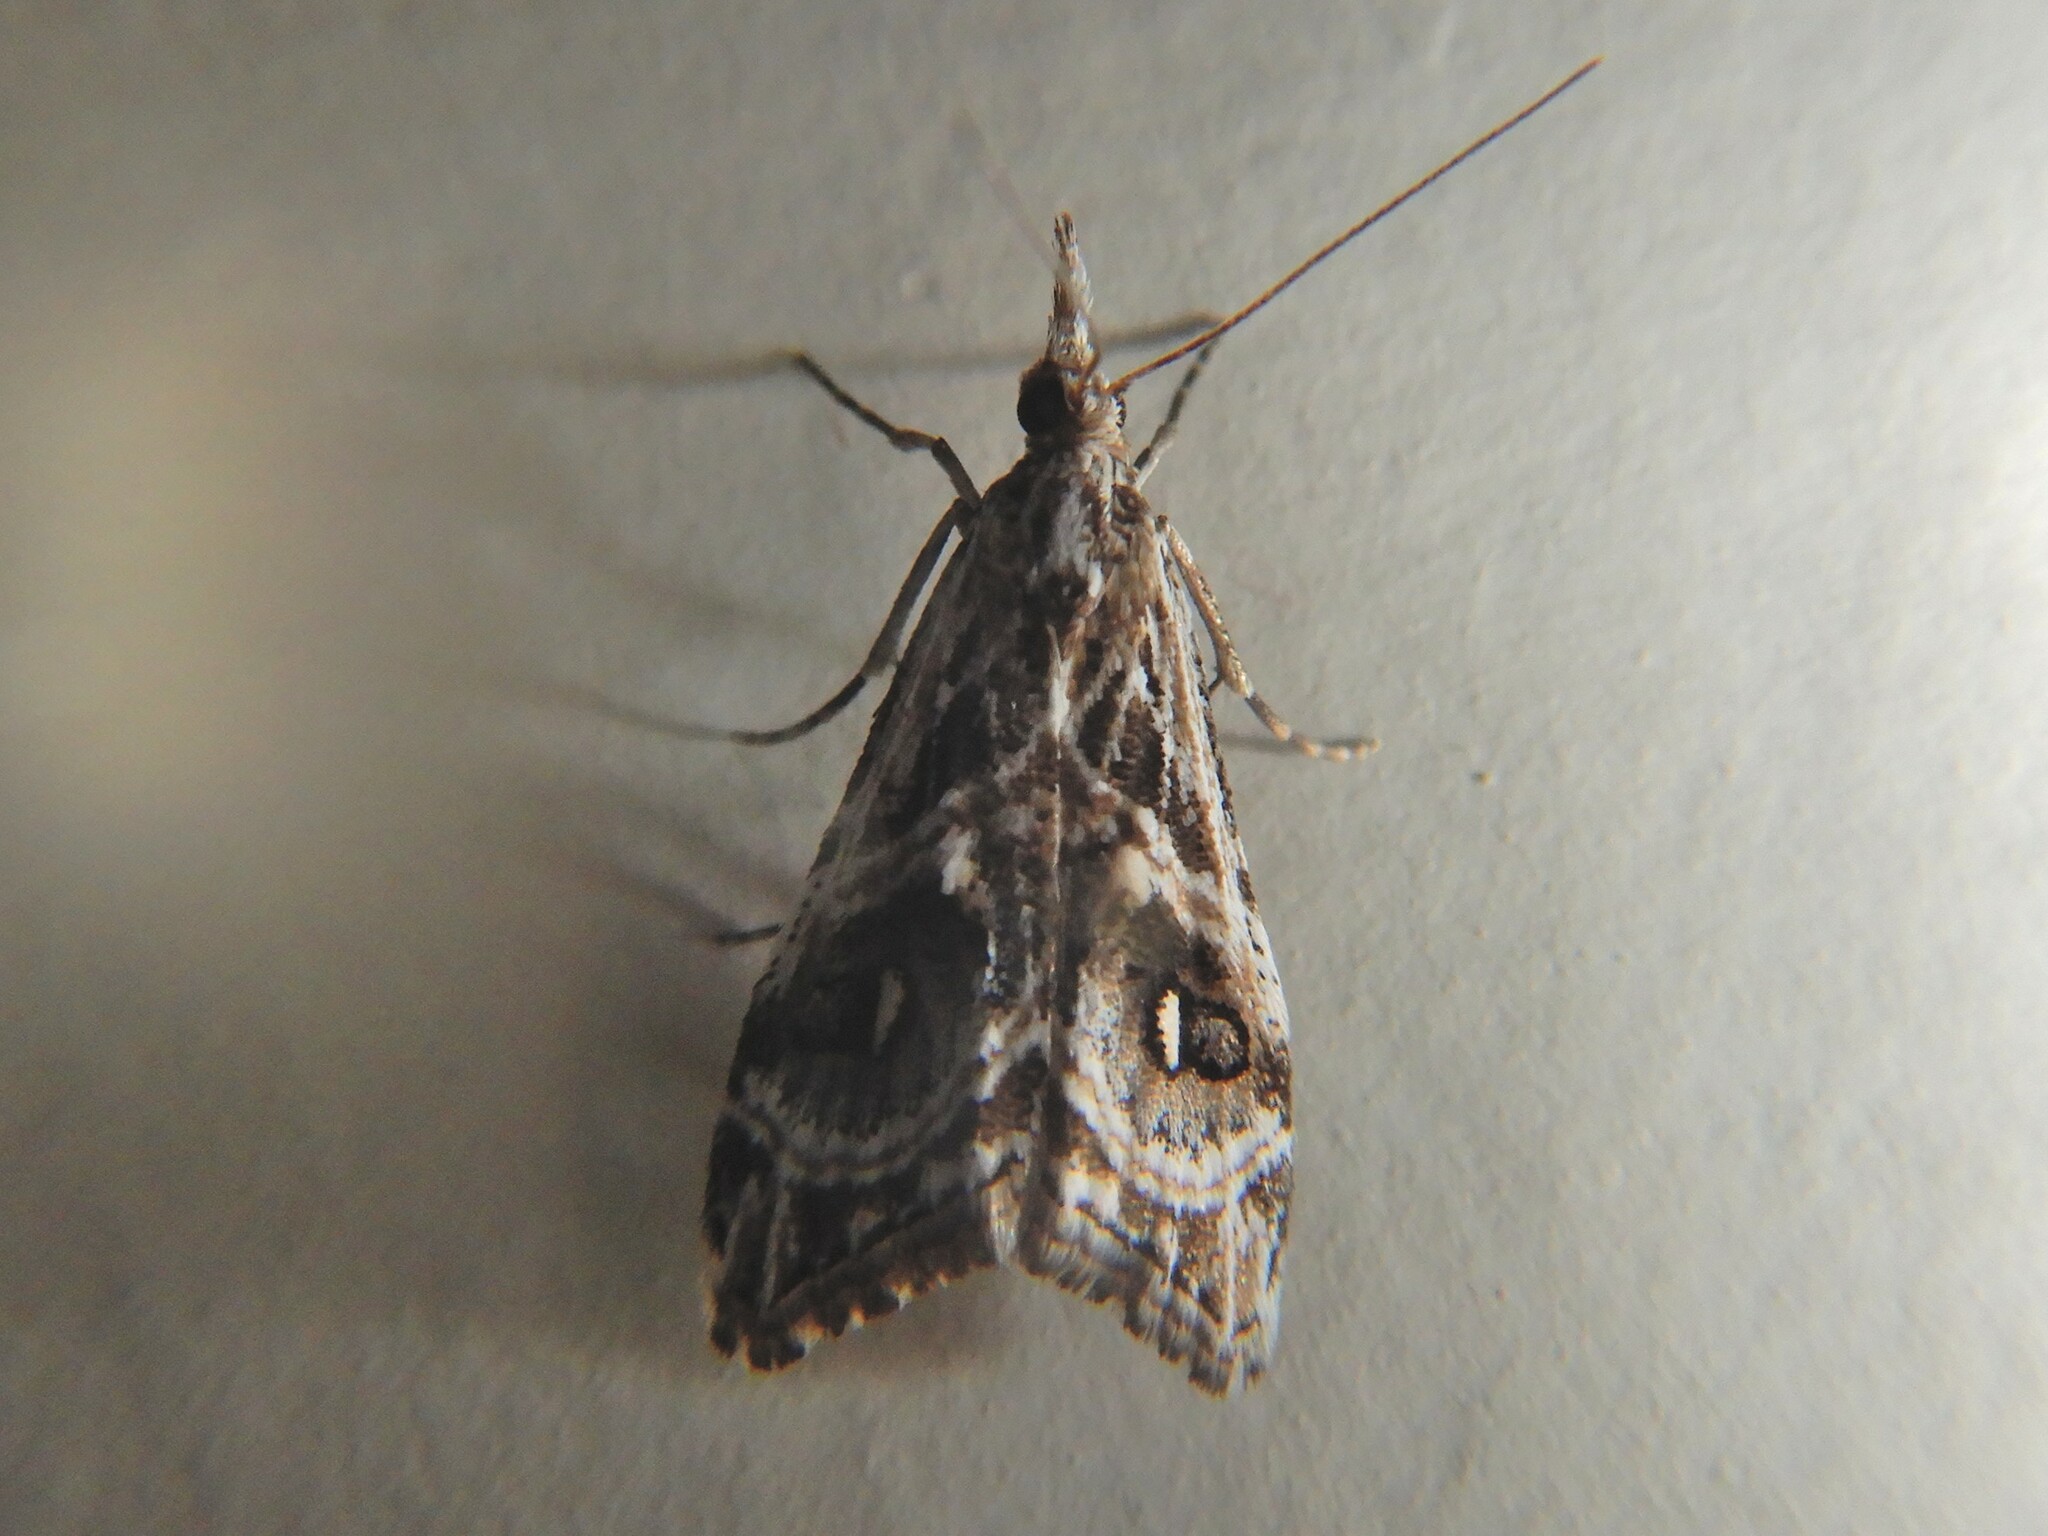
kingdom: Animalia
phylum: Arthropoda
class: Insecta
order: Lepidoptera
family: Crambidae
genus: Gadira
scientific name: Gadira acerella
